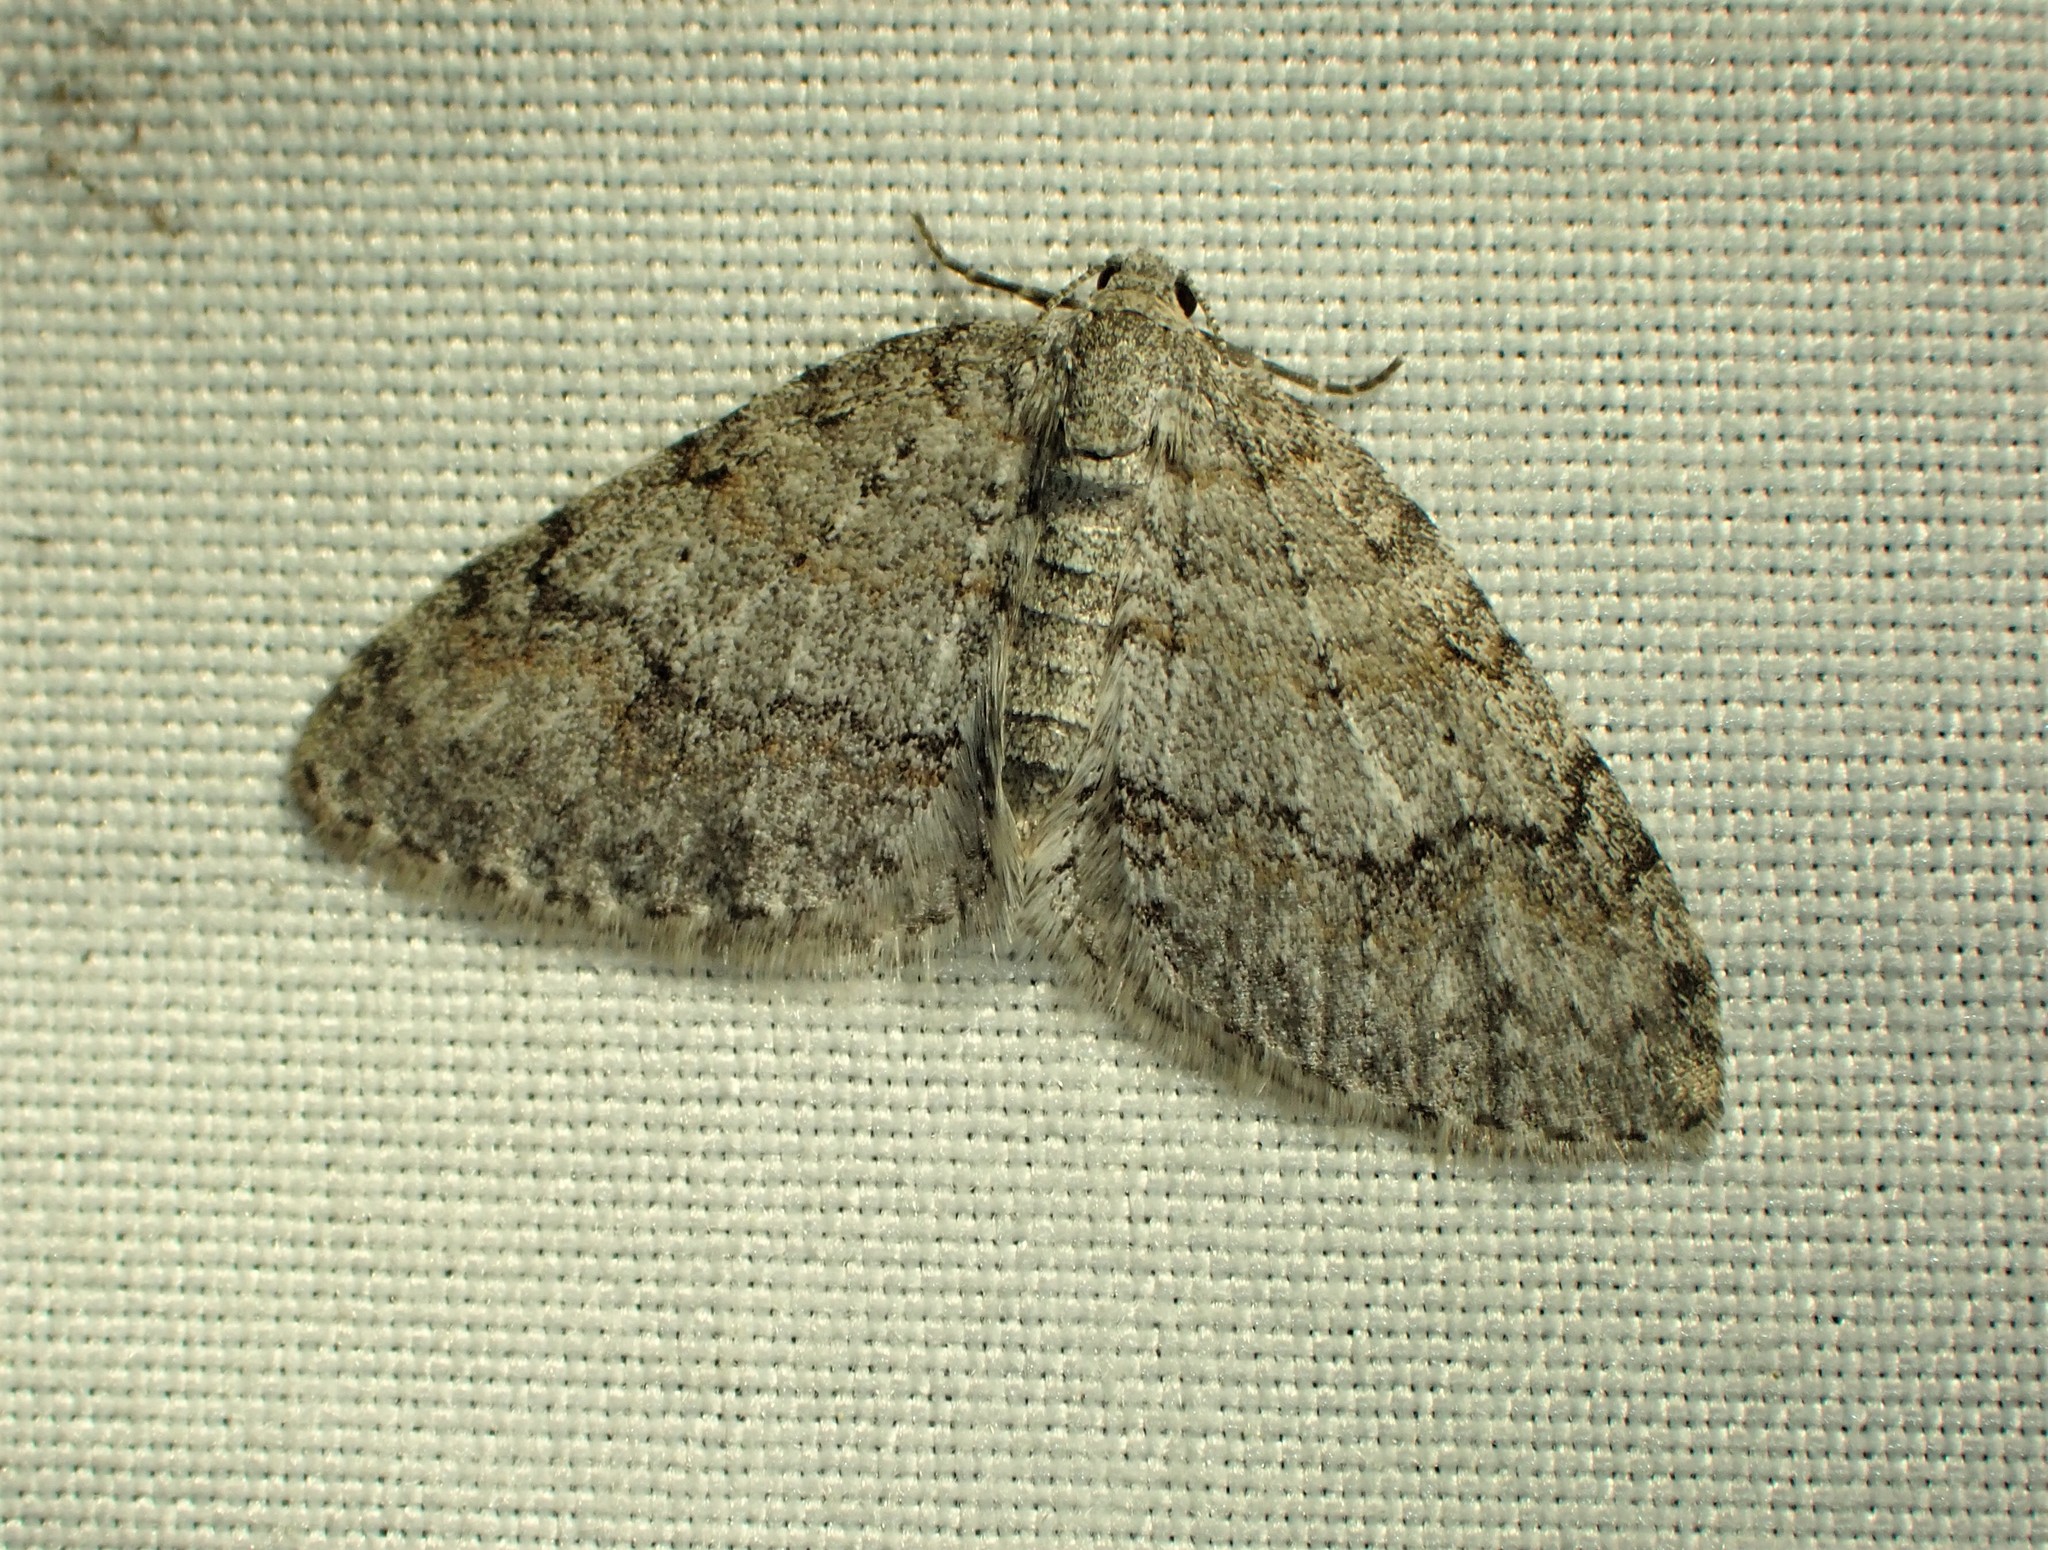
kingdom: Animalia
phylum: Arthropoda
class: Insecta
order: Lepidoptera
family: Geometridae
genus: Venusia
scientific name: Venusia comptaria
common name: Brown-shaded carpet
